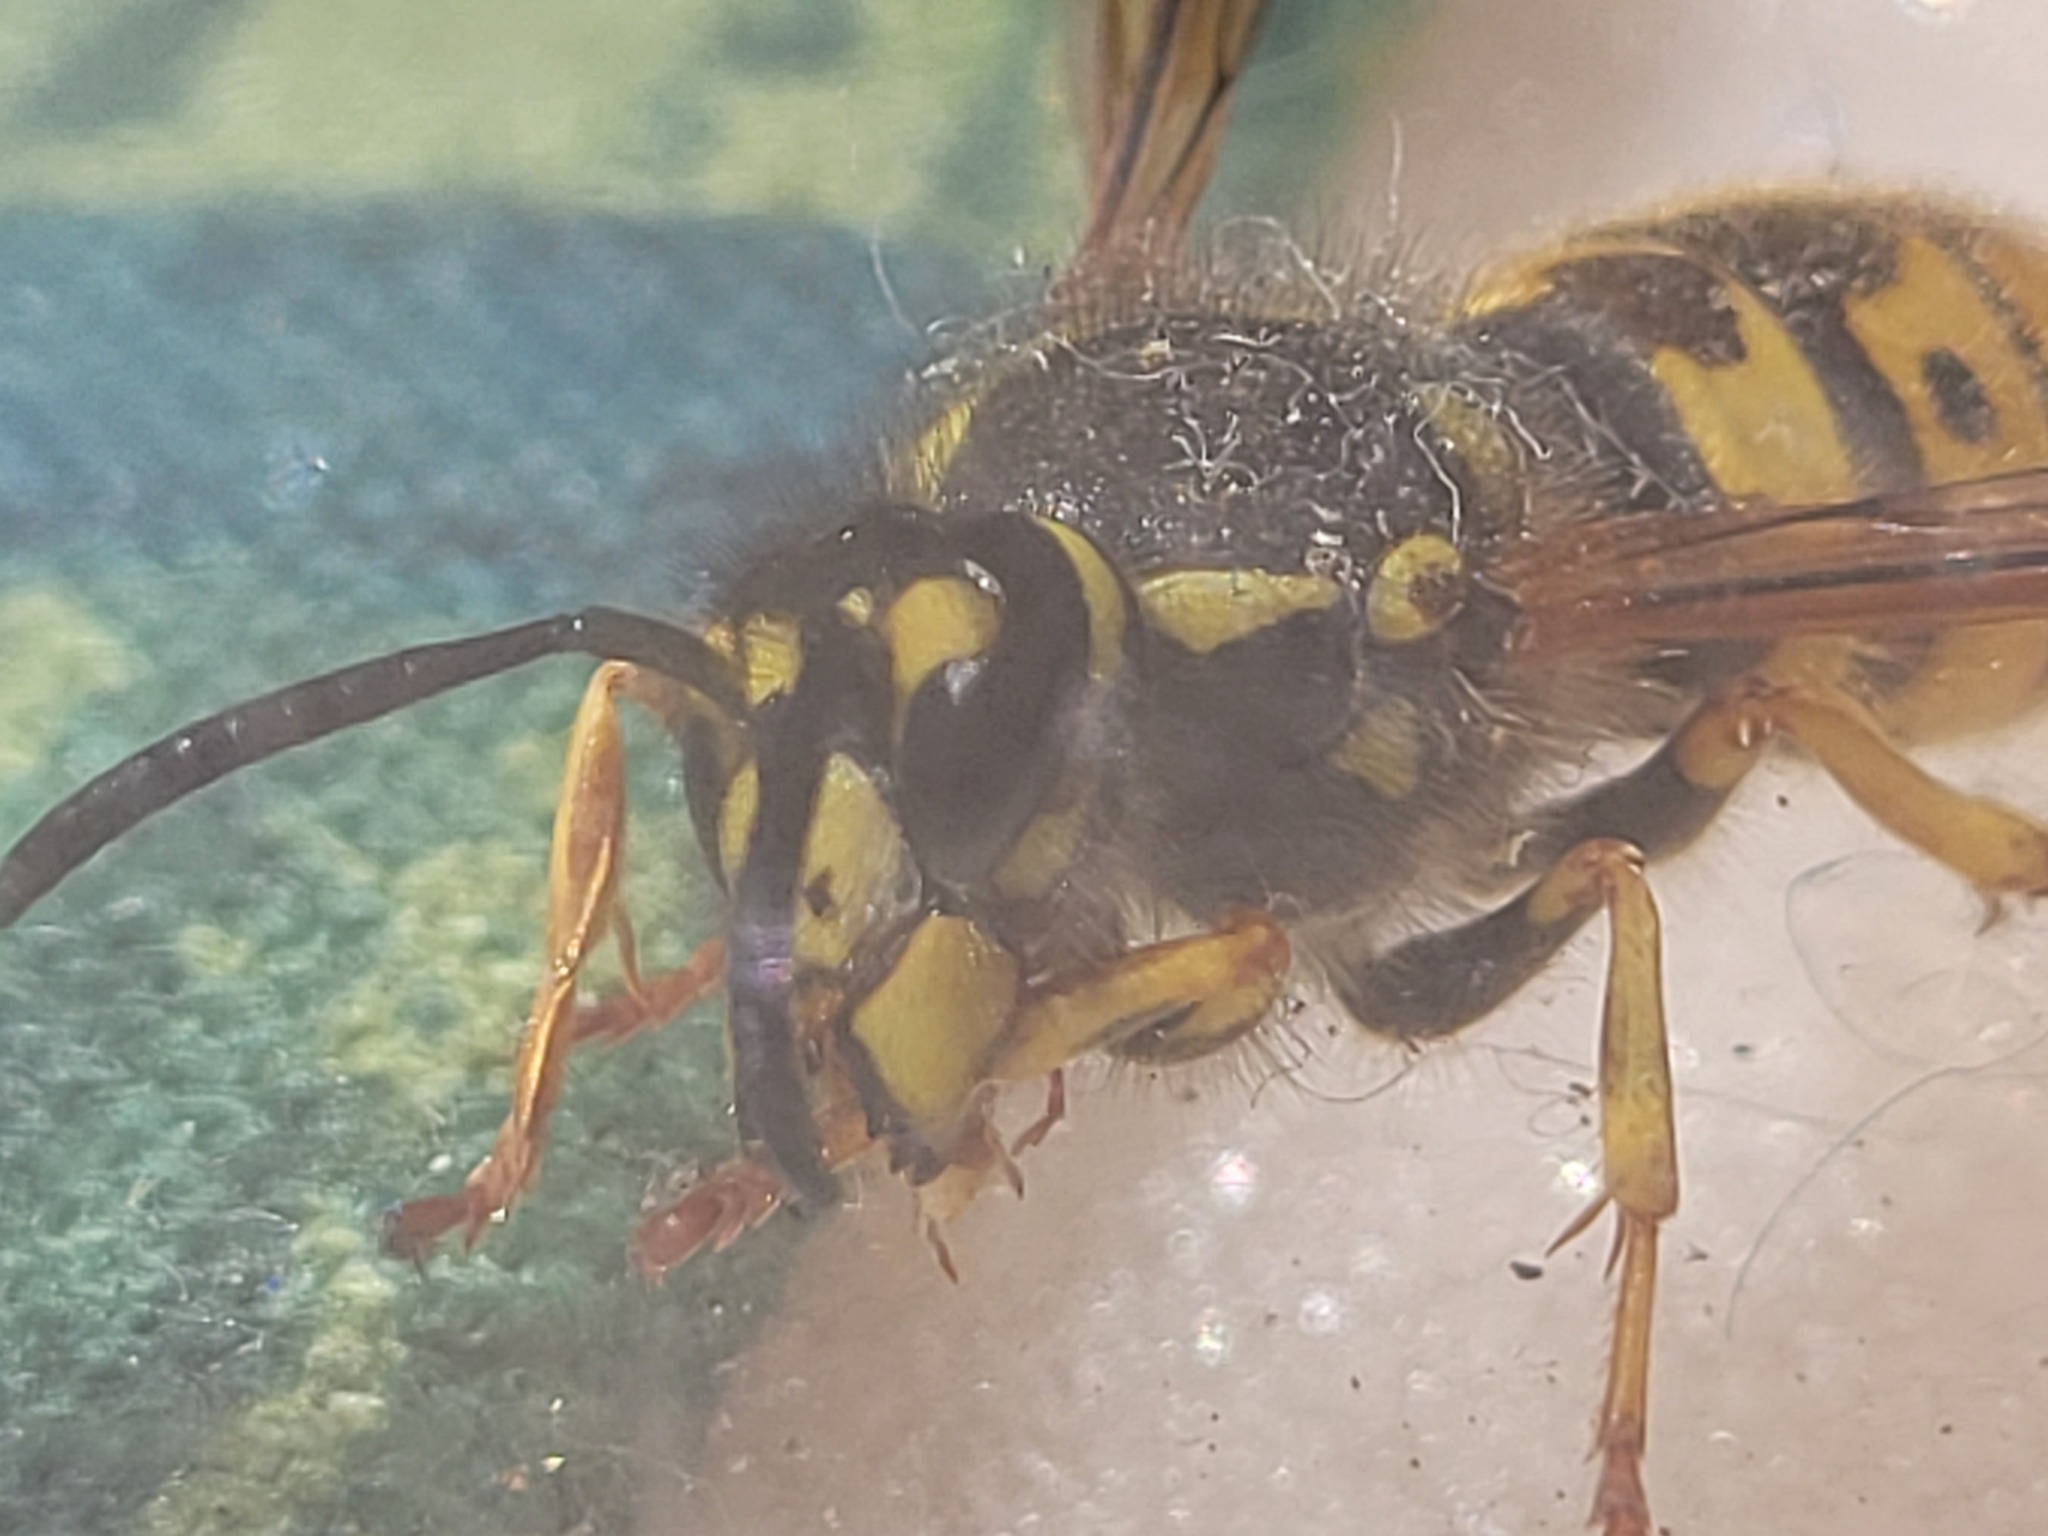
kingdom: Animalia
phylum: Arthropoda
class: Insecta
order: Hymenoptera
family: Vespidae
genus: Vespula
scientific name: Vespula germanica
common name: German wasp
